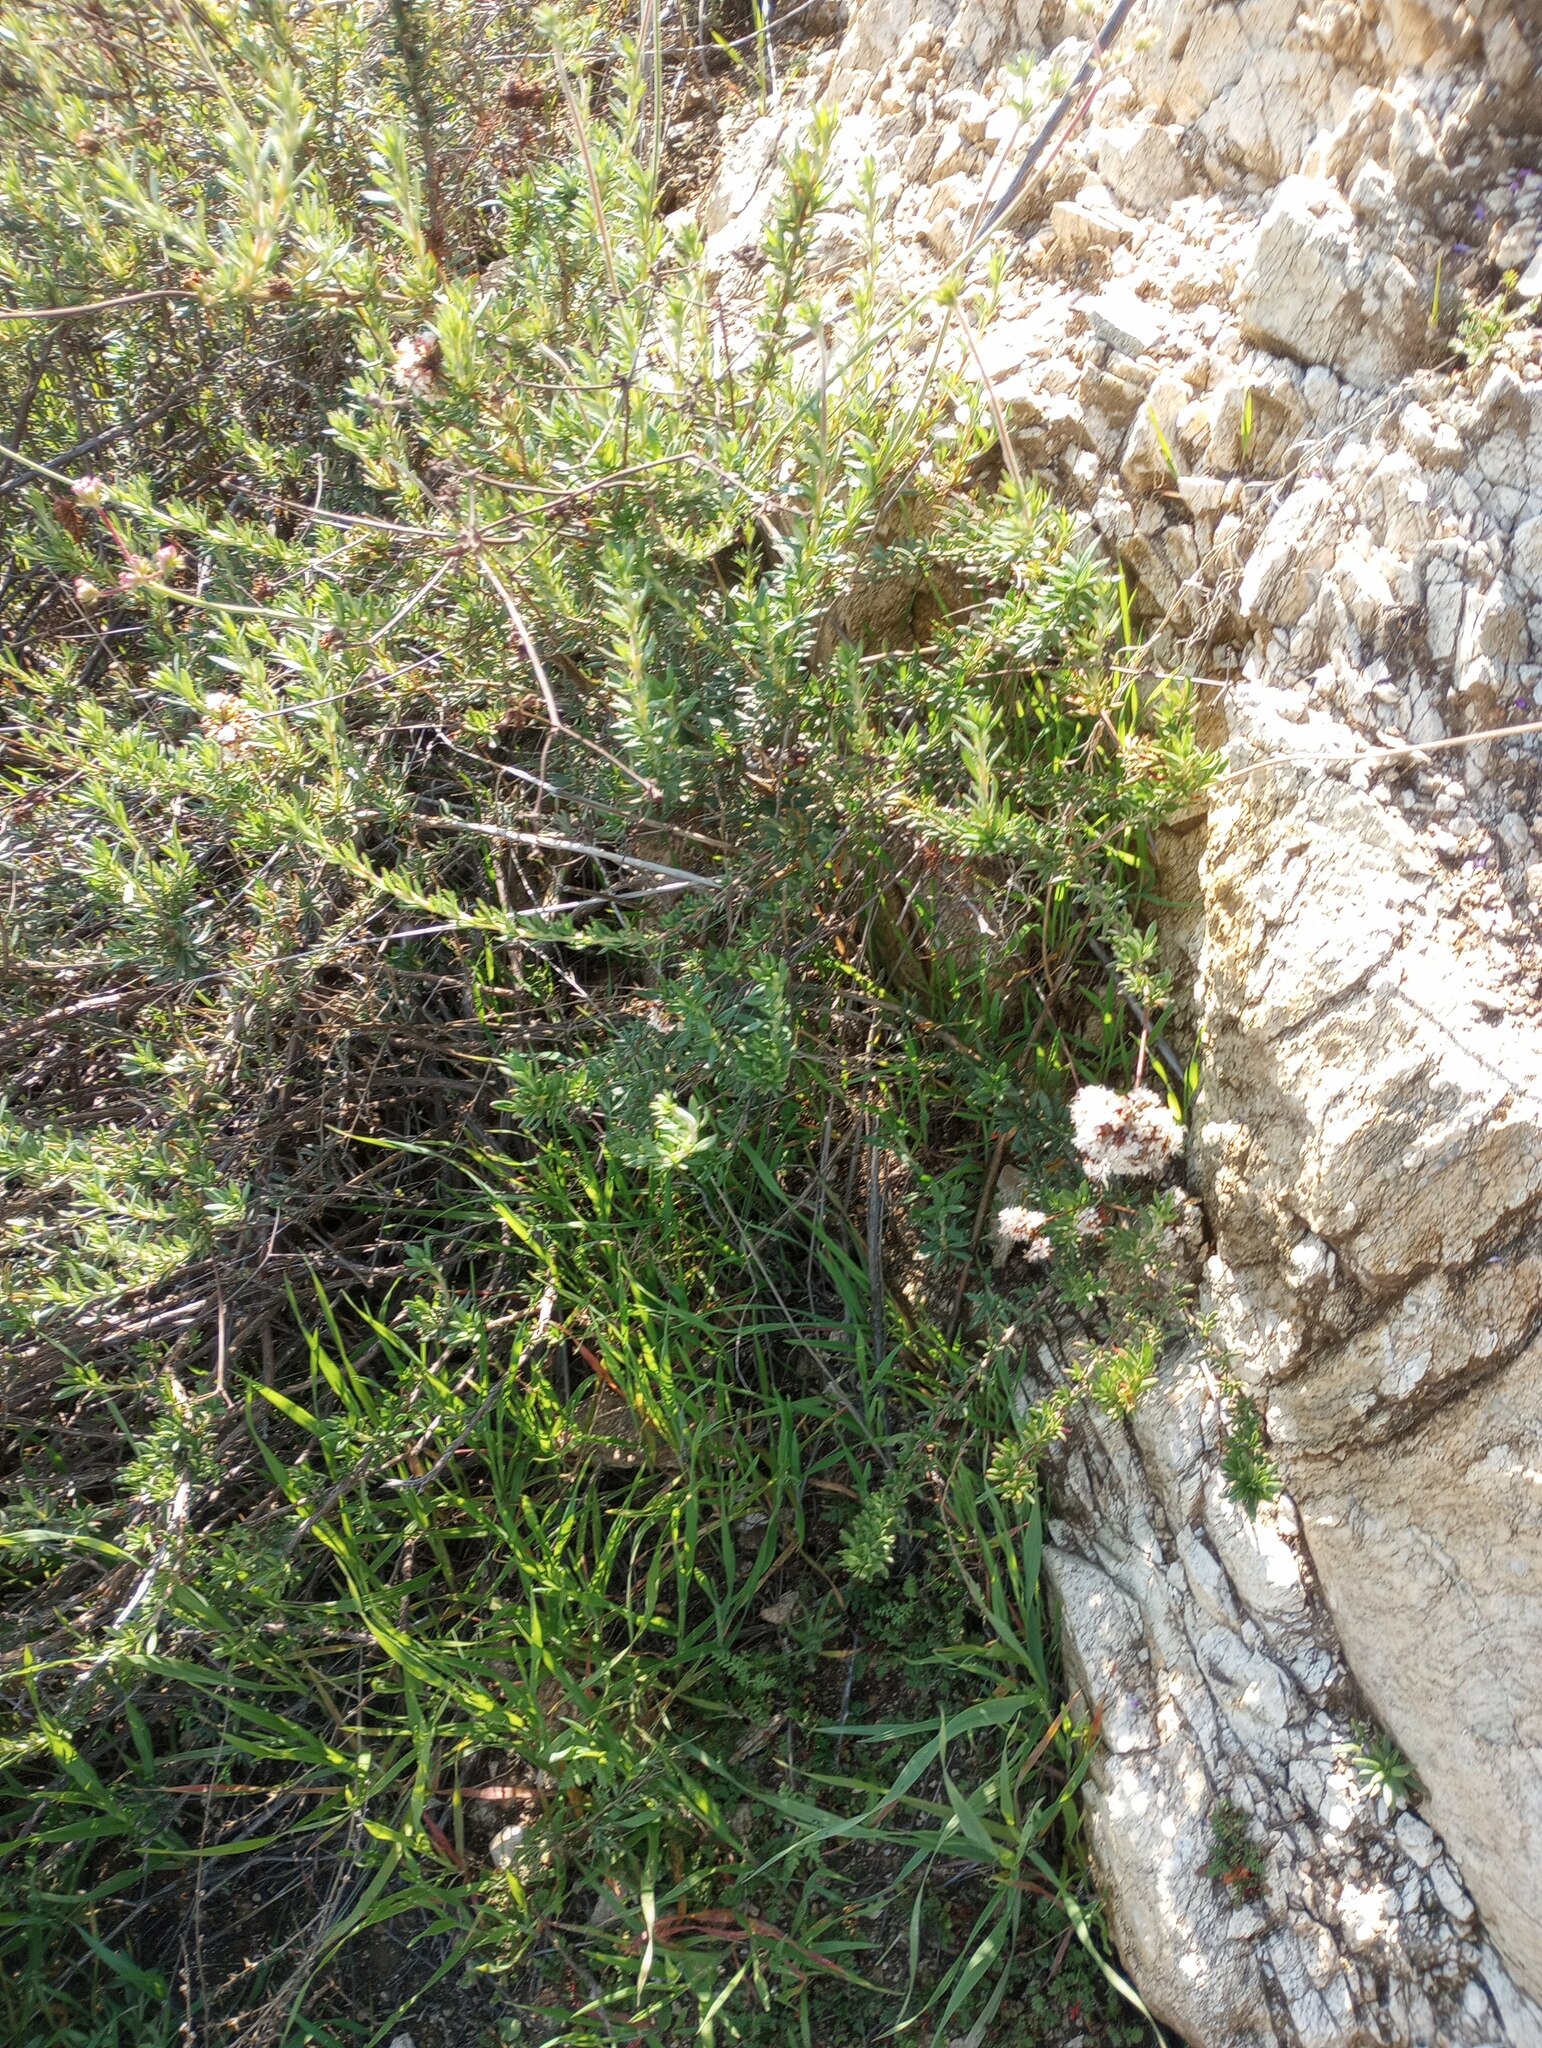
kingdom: Plantae
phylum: Tracheophyta
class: Magnoliopsida
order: Caryophyllales
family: Polygonaceae
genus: Eriogonum
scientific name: Eriogonum fasciculatum
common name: California wild buckwheat
